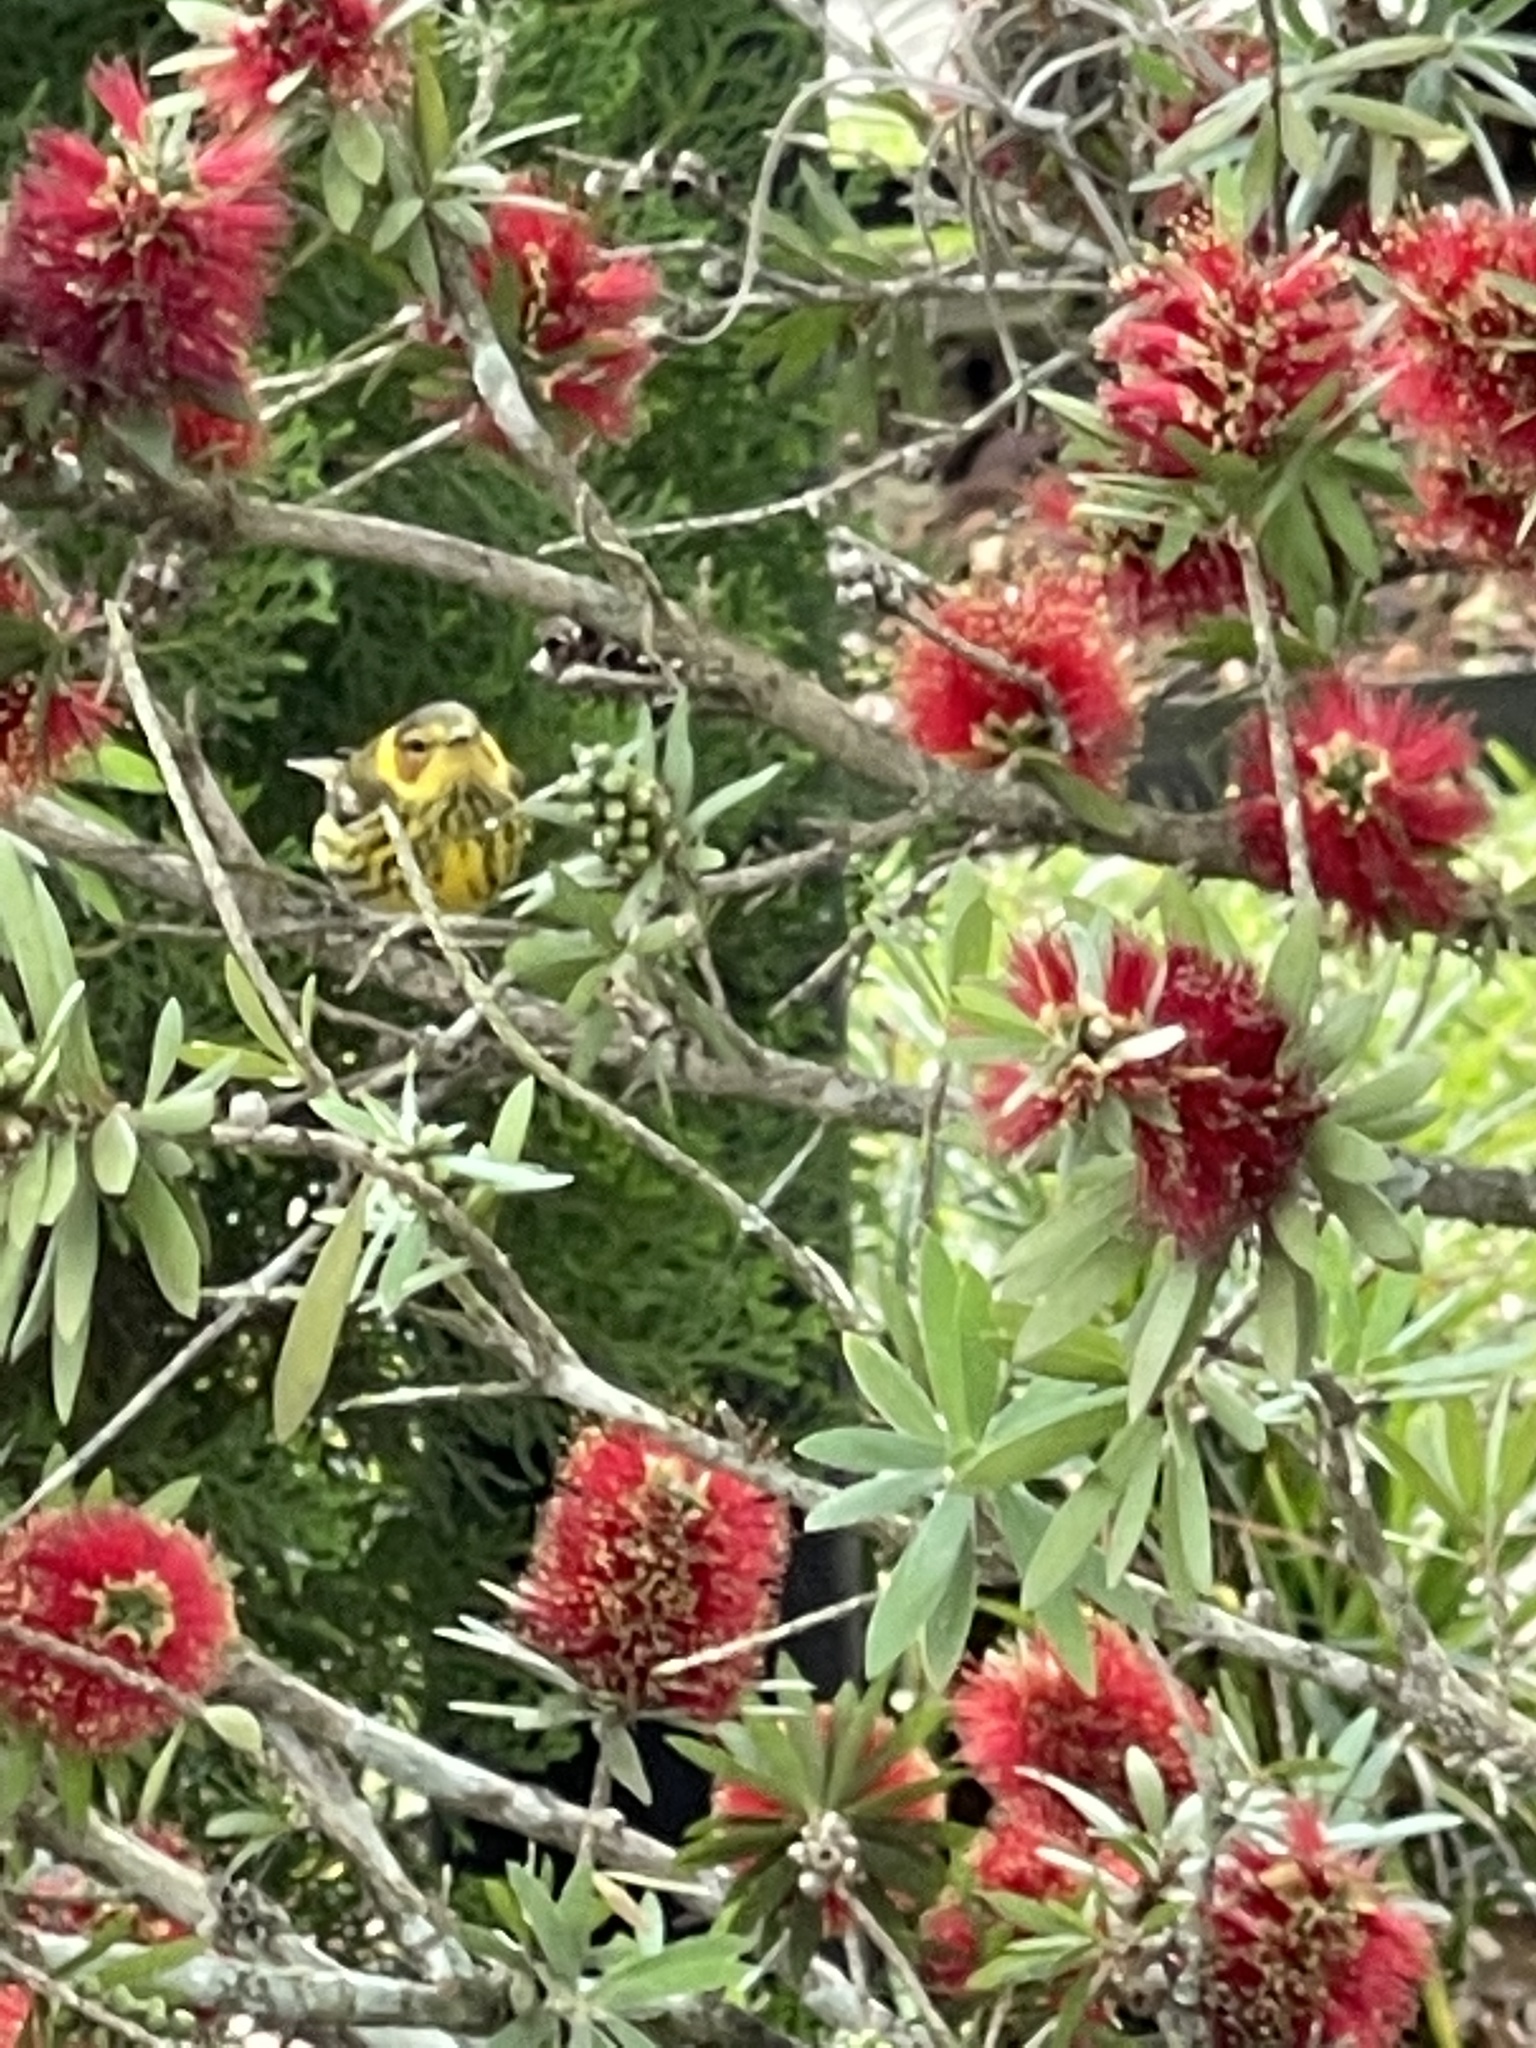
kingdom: Animalia
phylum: Chordata
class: Aves
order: Passeriformes
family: Parulidae
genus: Setophaga
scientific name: Setophaga tigrina
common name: Cape may warbler
